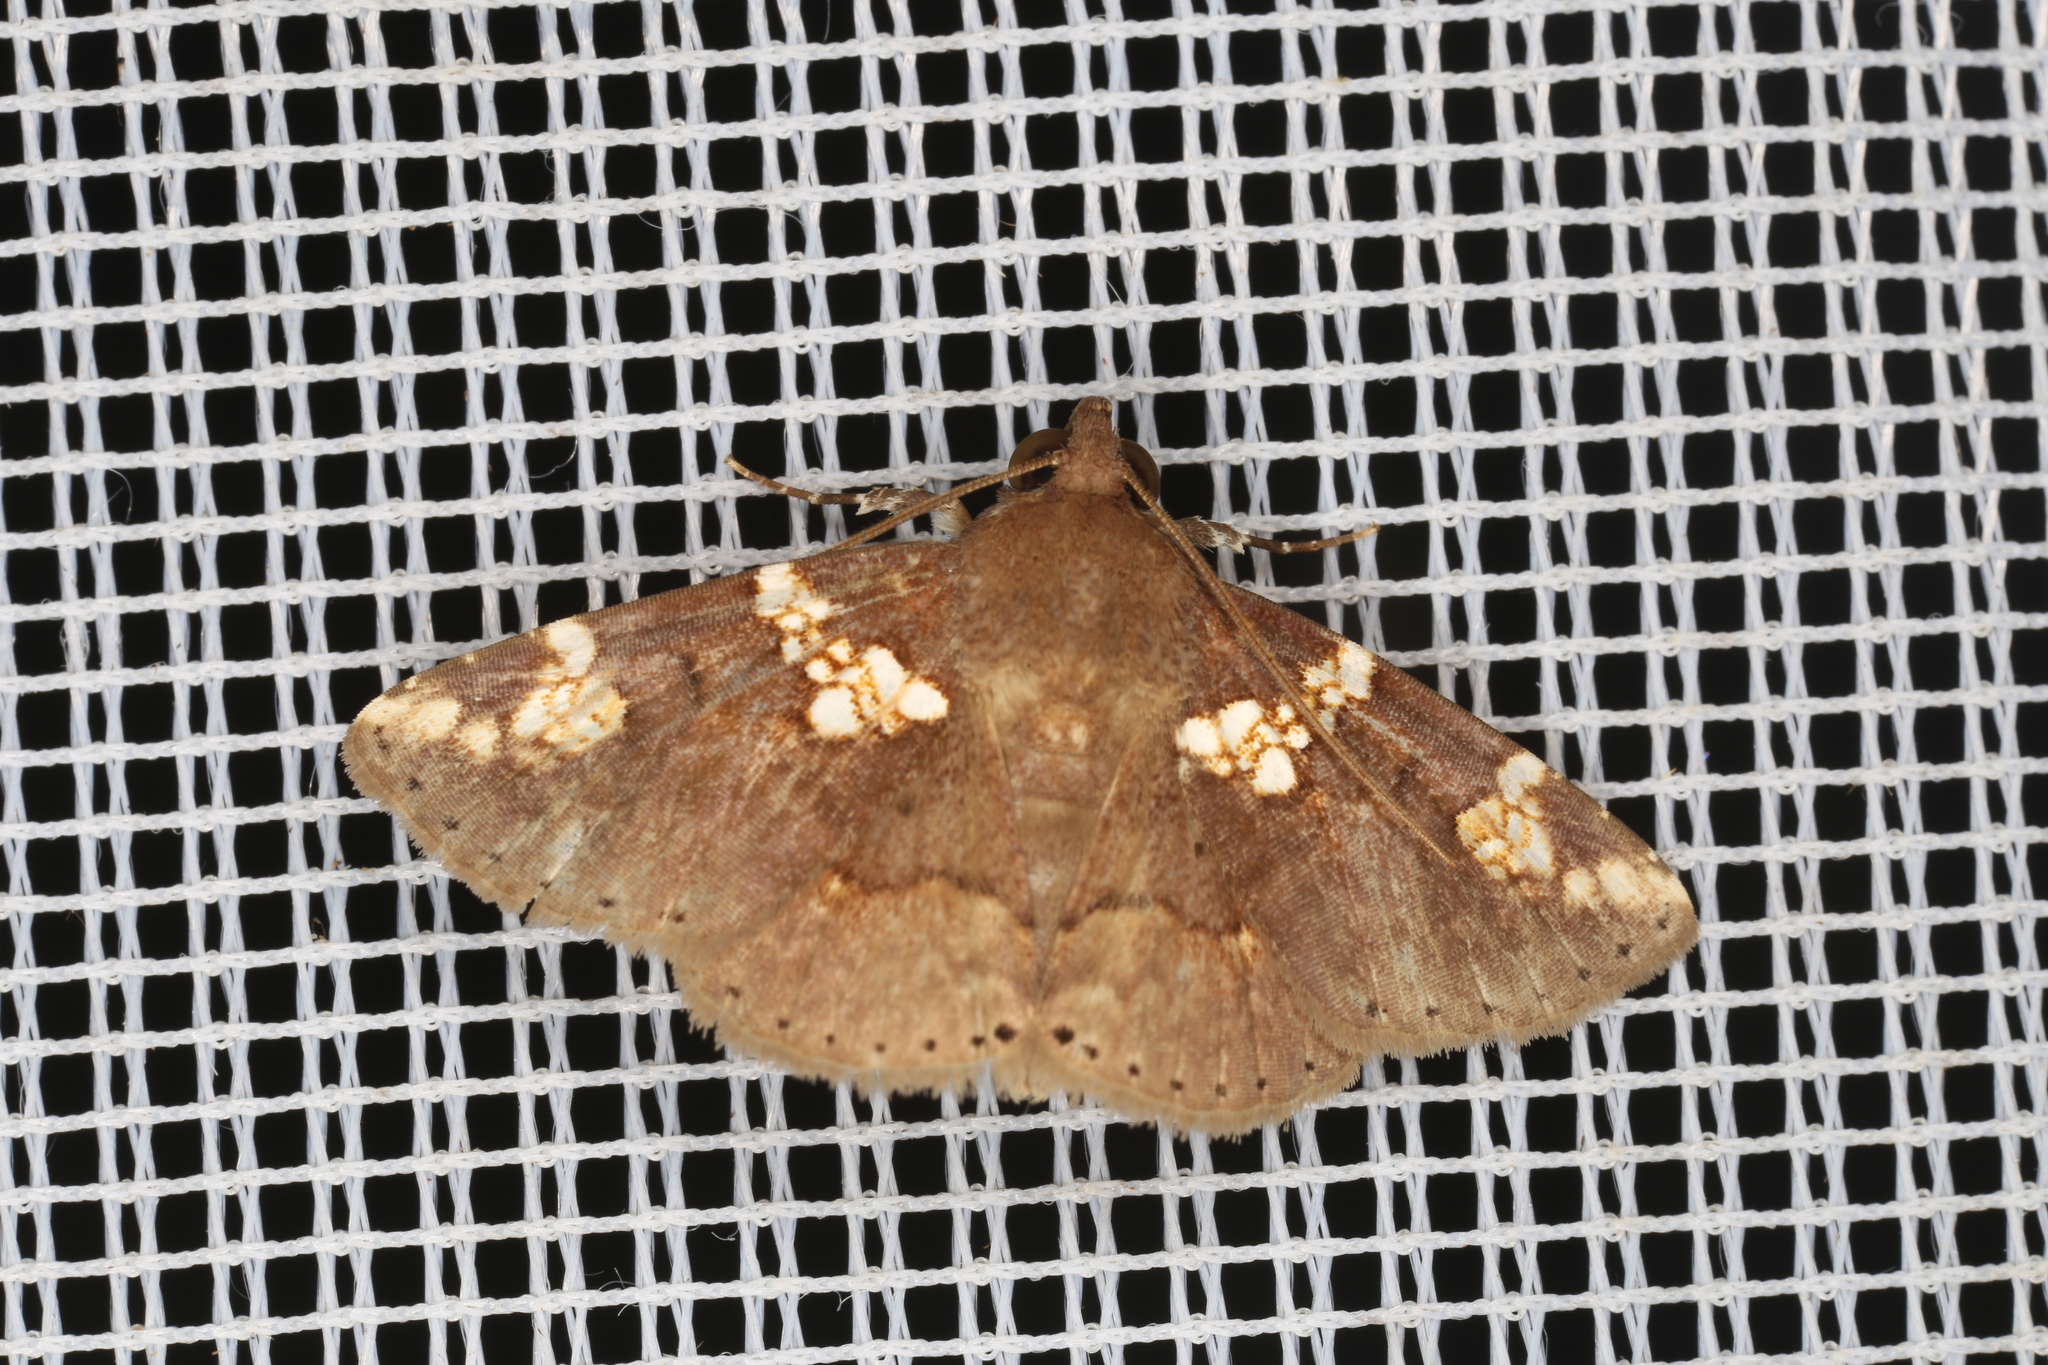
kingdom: Animalia
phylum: Arthropoda
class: Insecta
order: Lepidoptera
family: Erebidae
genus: Antiblemma
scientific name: Antiblemma perornata
